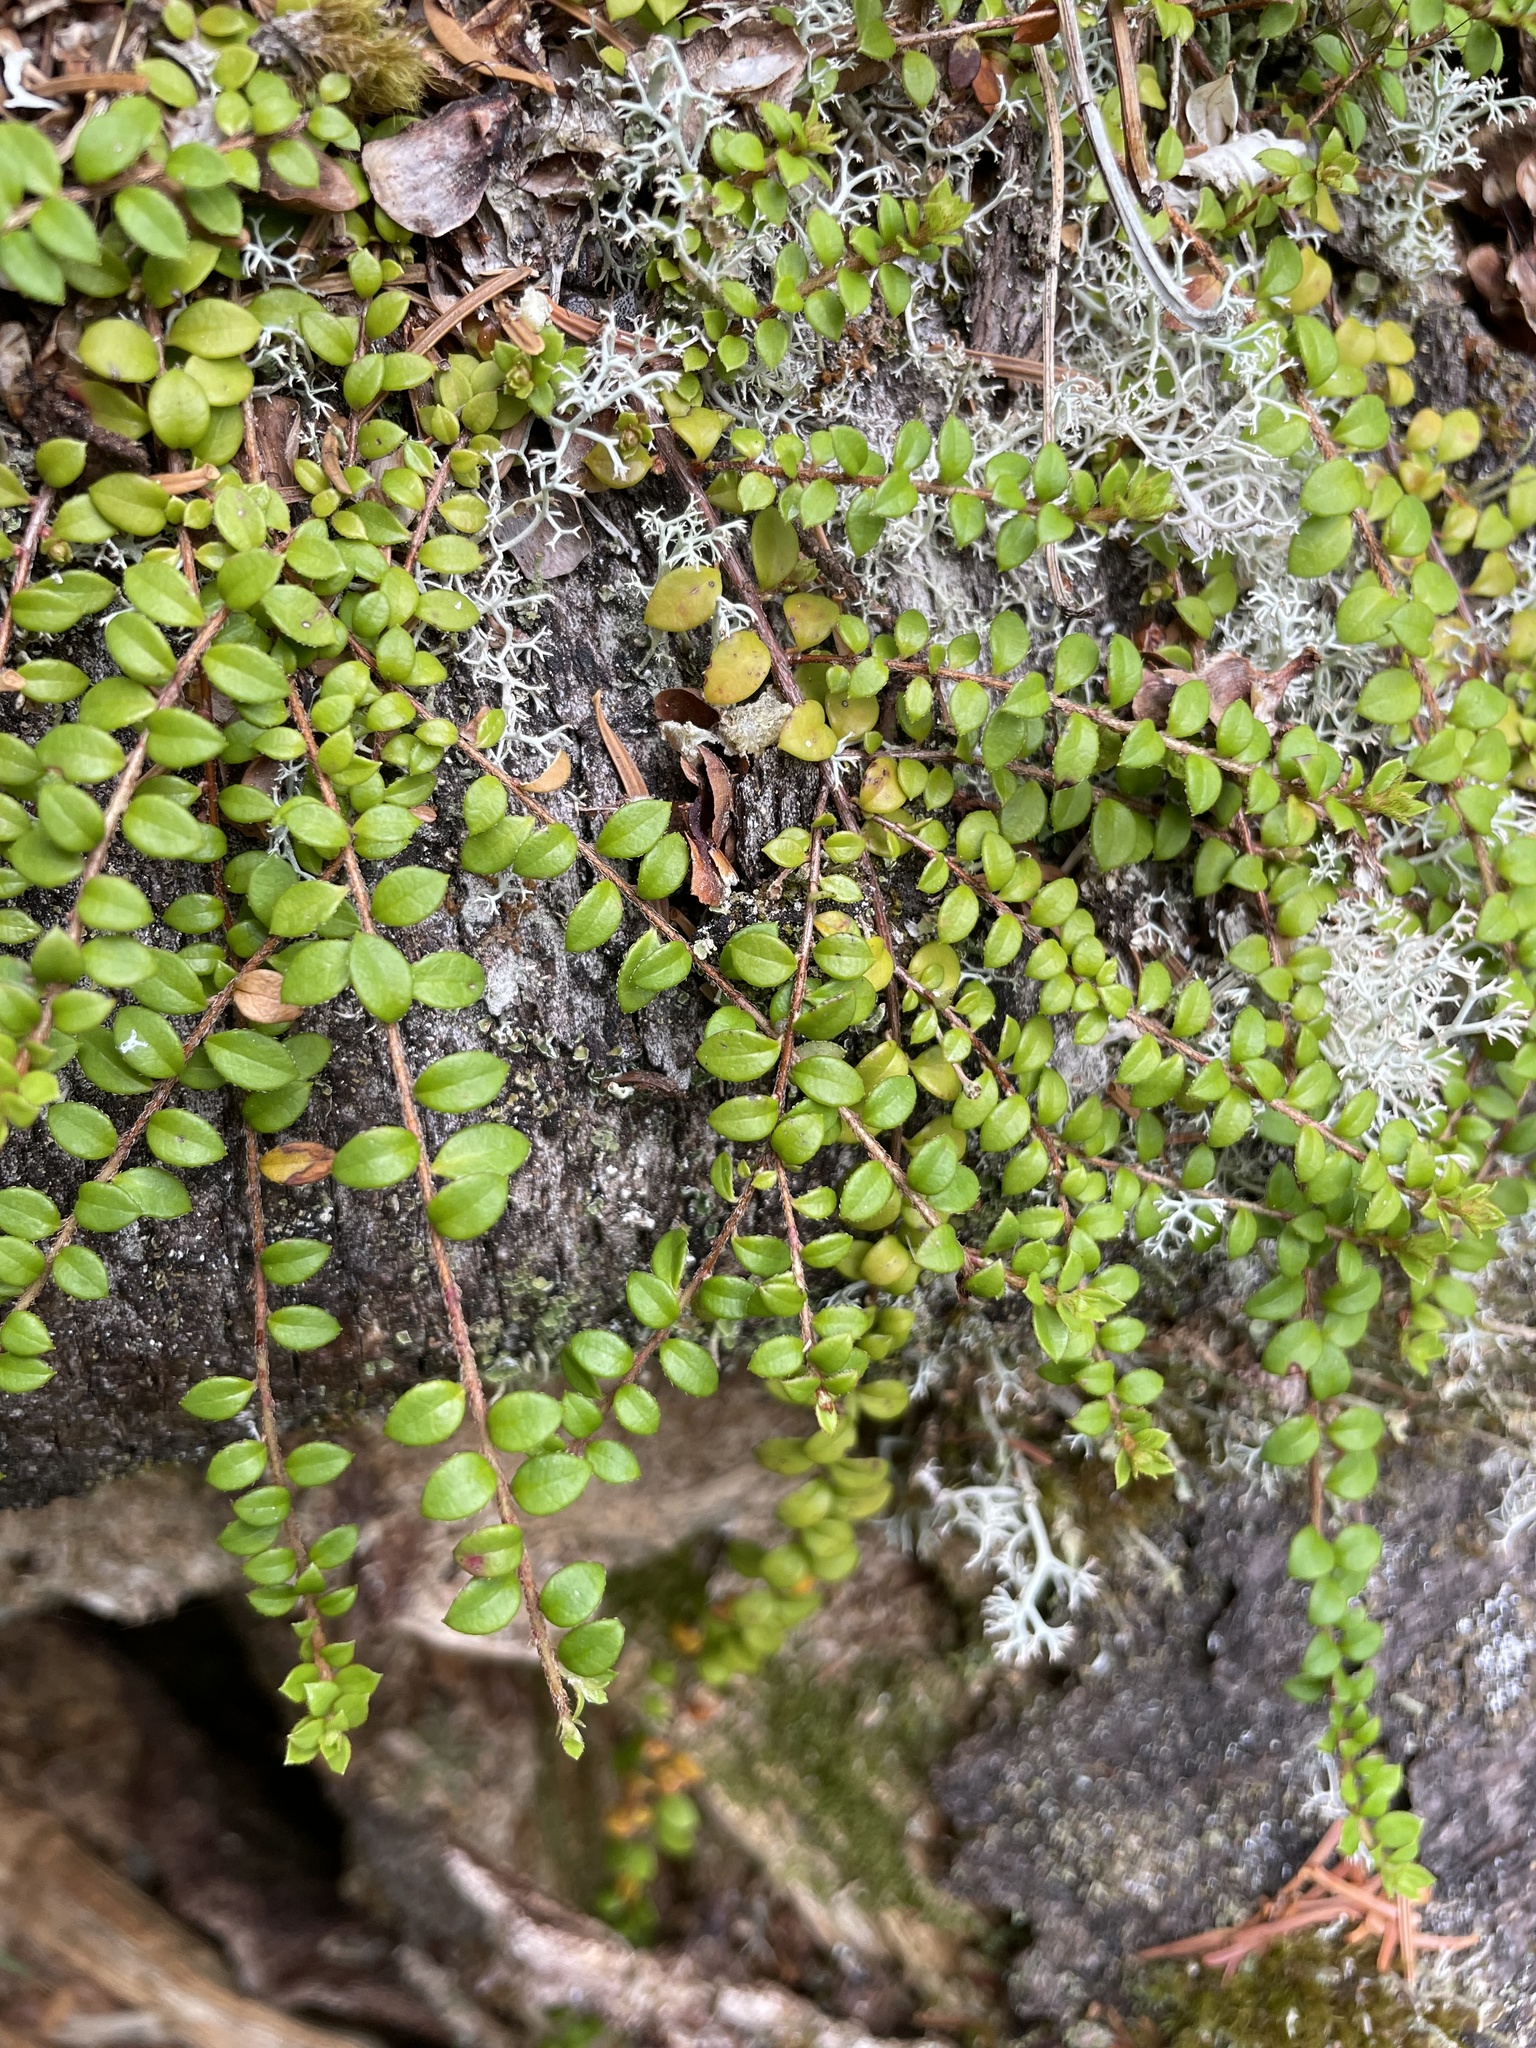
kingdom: Plantae
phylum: Tracheophyta
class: Magnoliopsida
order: Ericales
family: Ericaceae
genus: Gaultheria
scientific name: Gaultheria hispidula
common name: Cancer wintergreen
